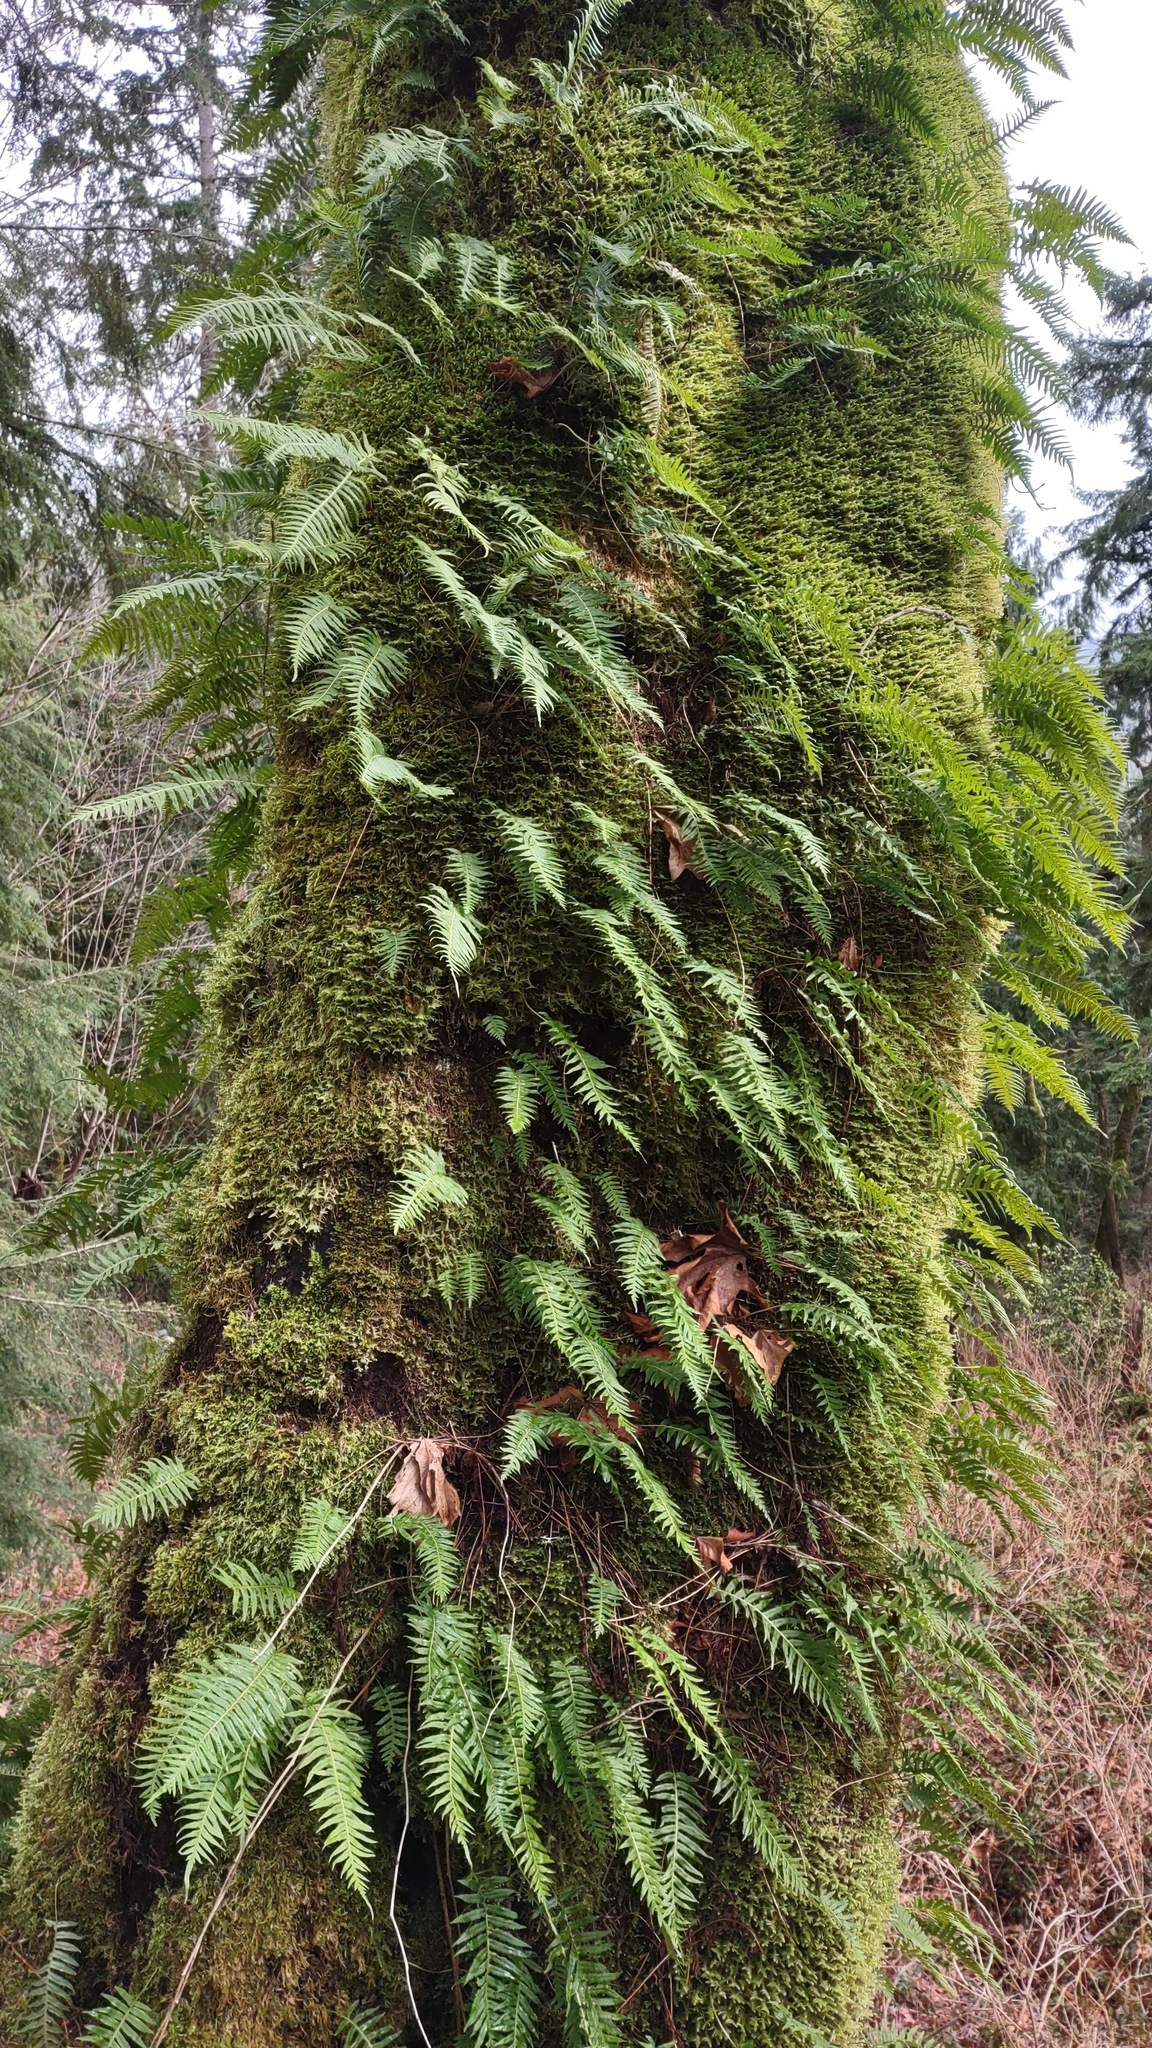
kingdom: Plantae
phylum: Tracheophyta
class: Polypodiopsida
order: Polypodiales
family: Polypodiaceae
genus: Polypodium
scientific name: Polypodium glycyrrhiza
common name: Licorice fern
